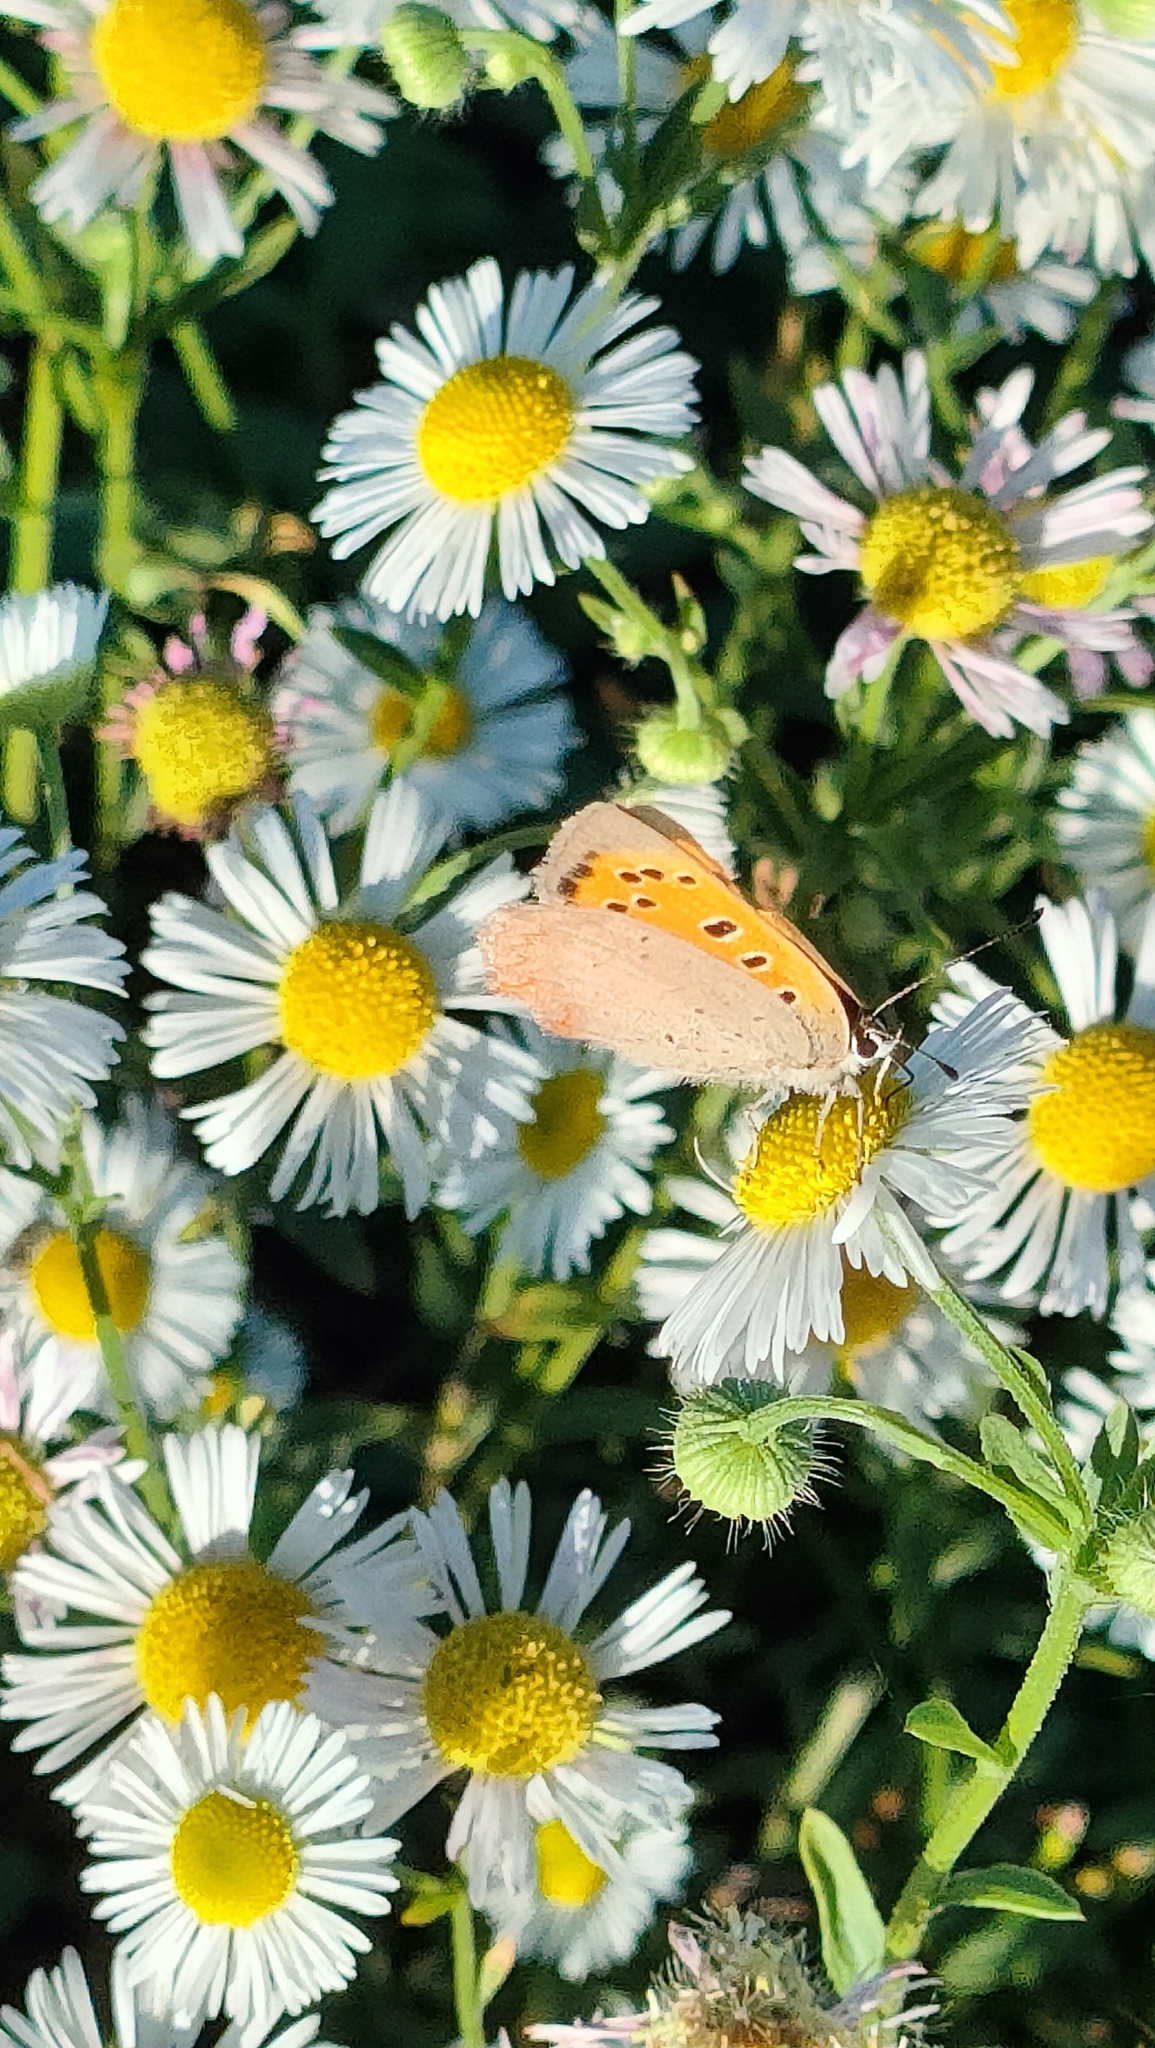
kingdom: Animalia
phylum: Arthropoda
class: Insecta
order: Lepidoptera
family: Lycaenidae
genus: Lycaena
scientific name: Lycaena phlaeas
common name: Small copper
